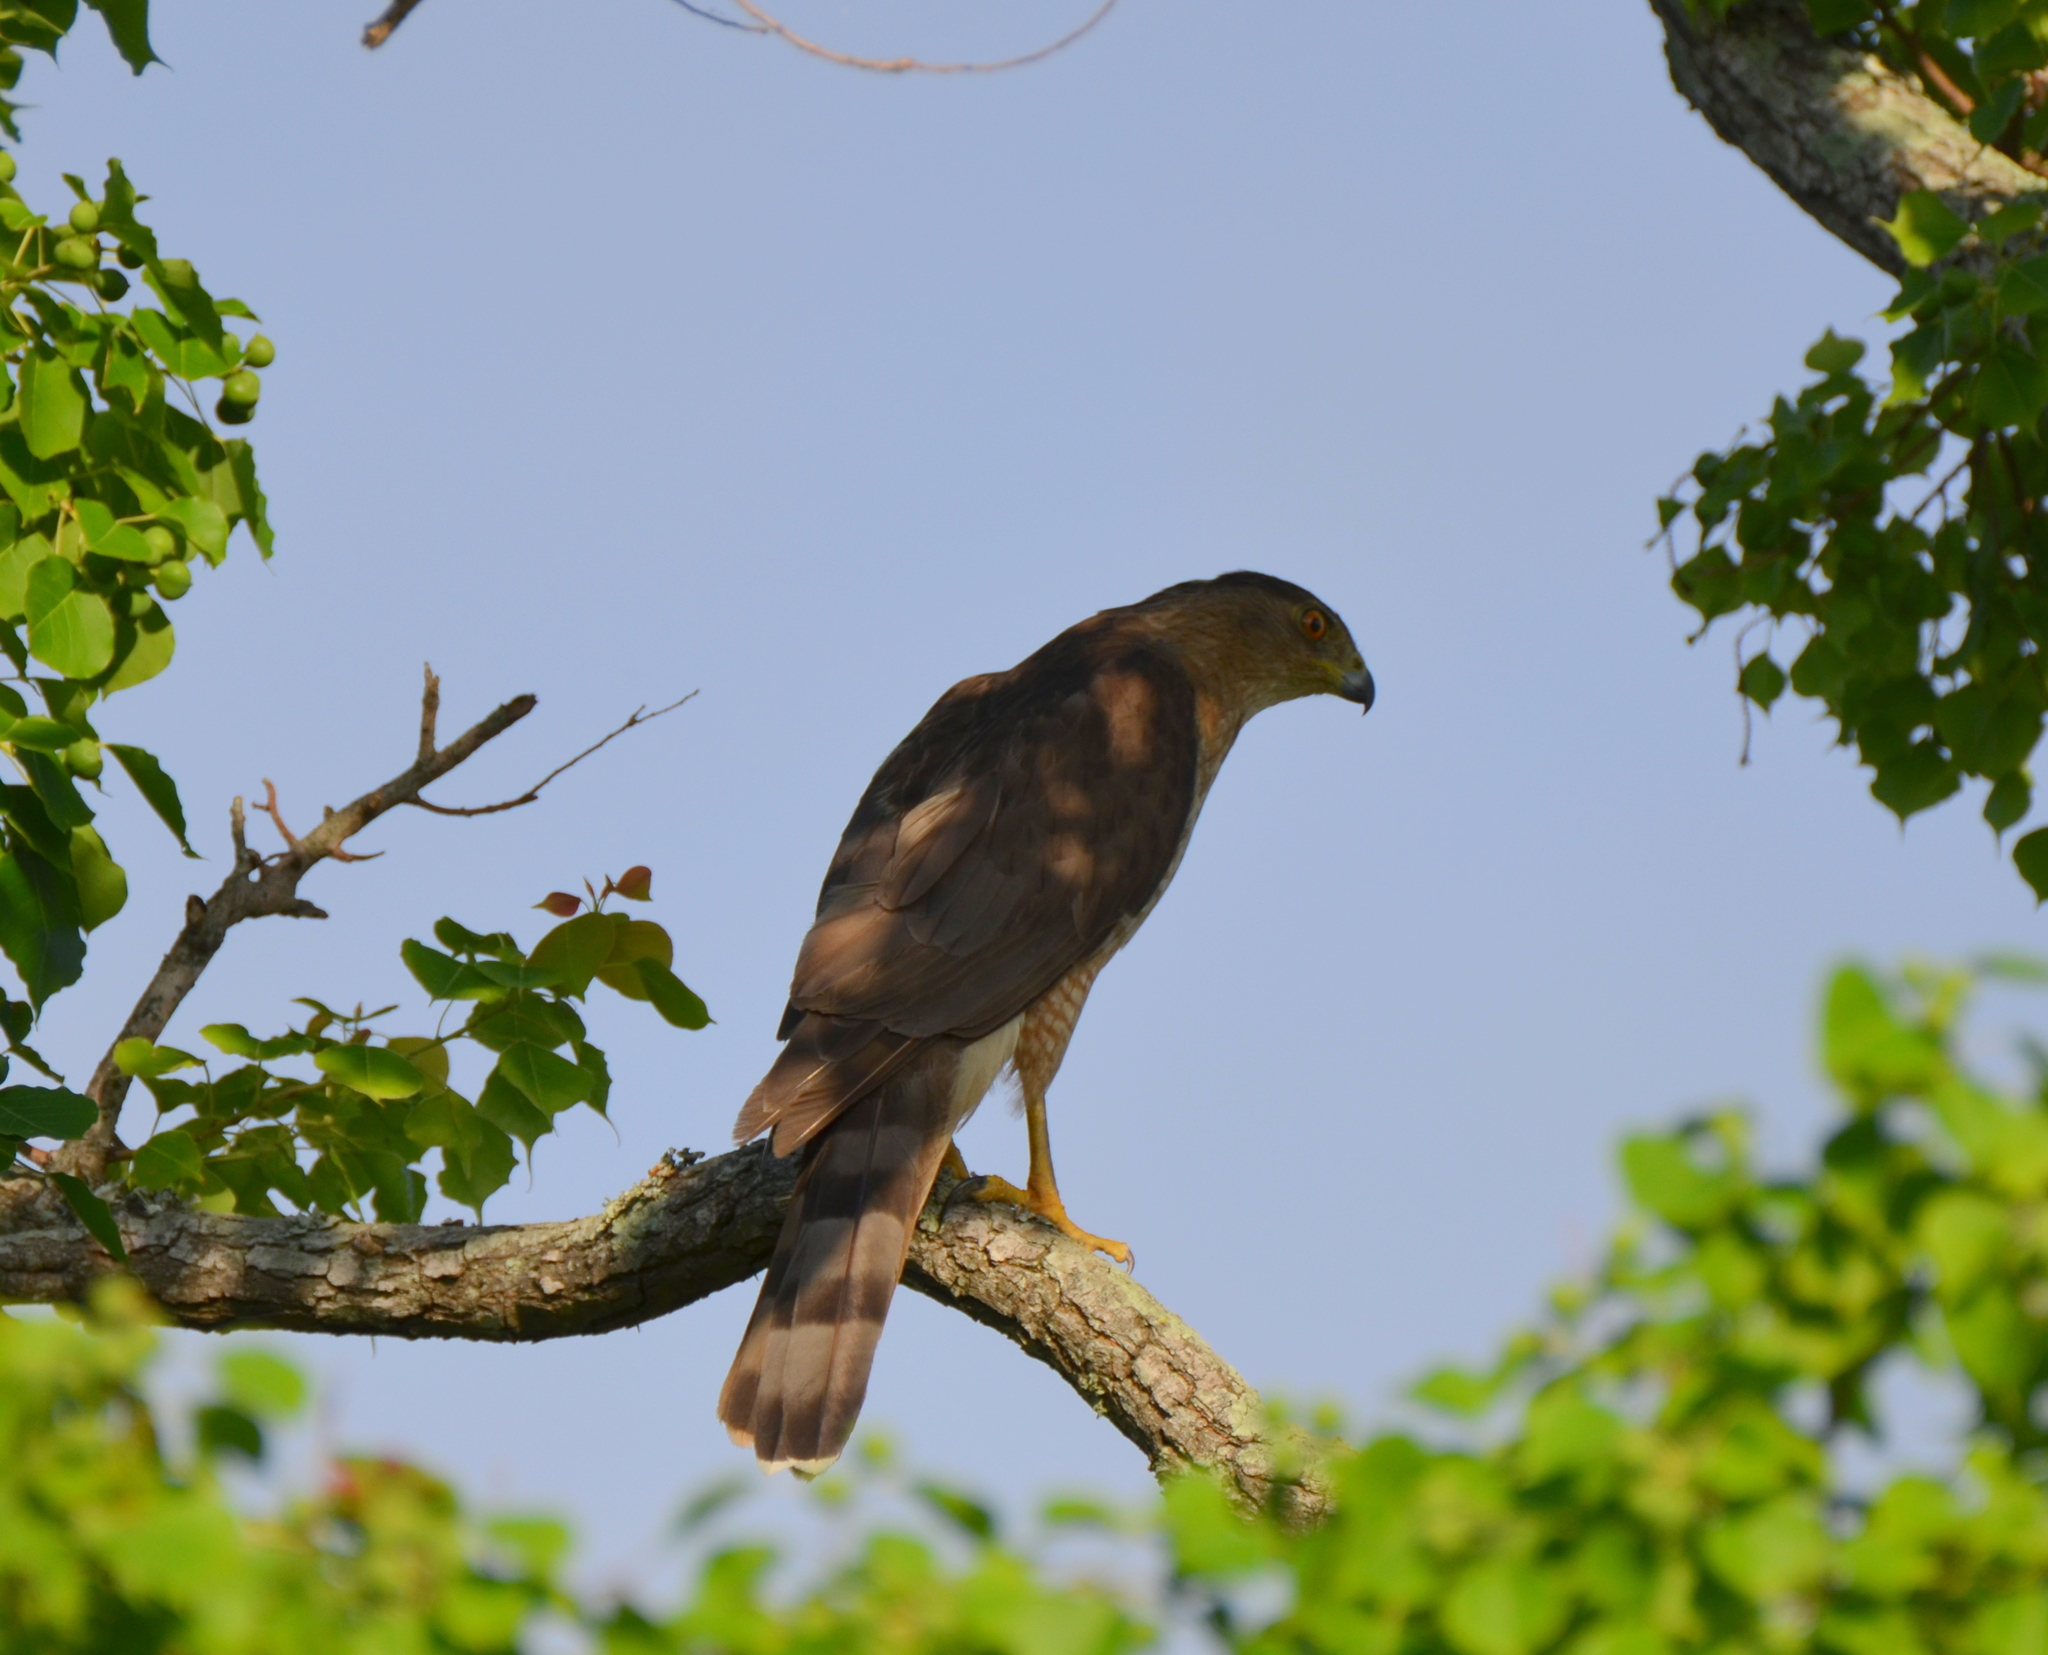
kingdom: Animalia
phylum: Chordata
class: Aves
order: Accipitriformes
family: Accipitridae
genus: Accipiter
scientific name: Accipiter cooperii
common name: Cooper's hawk
